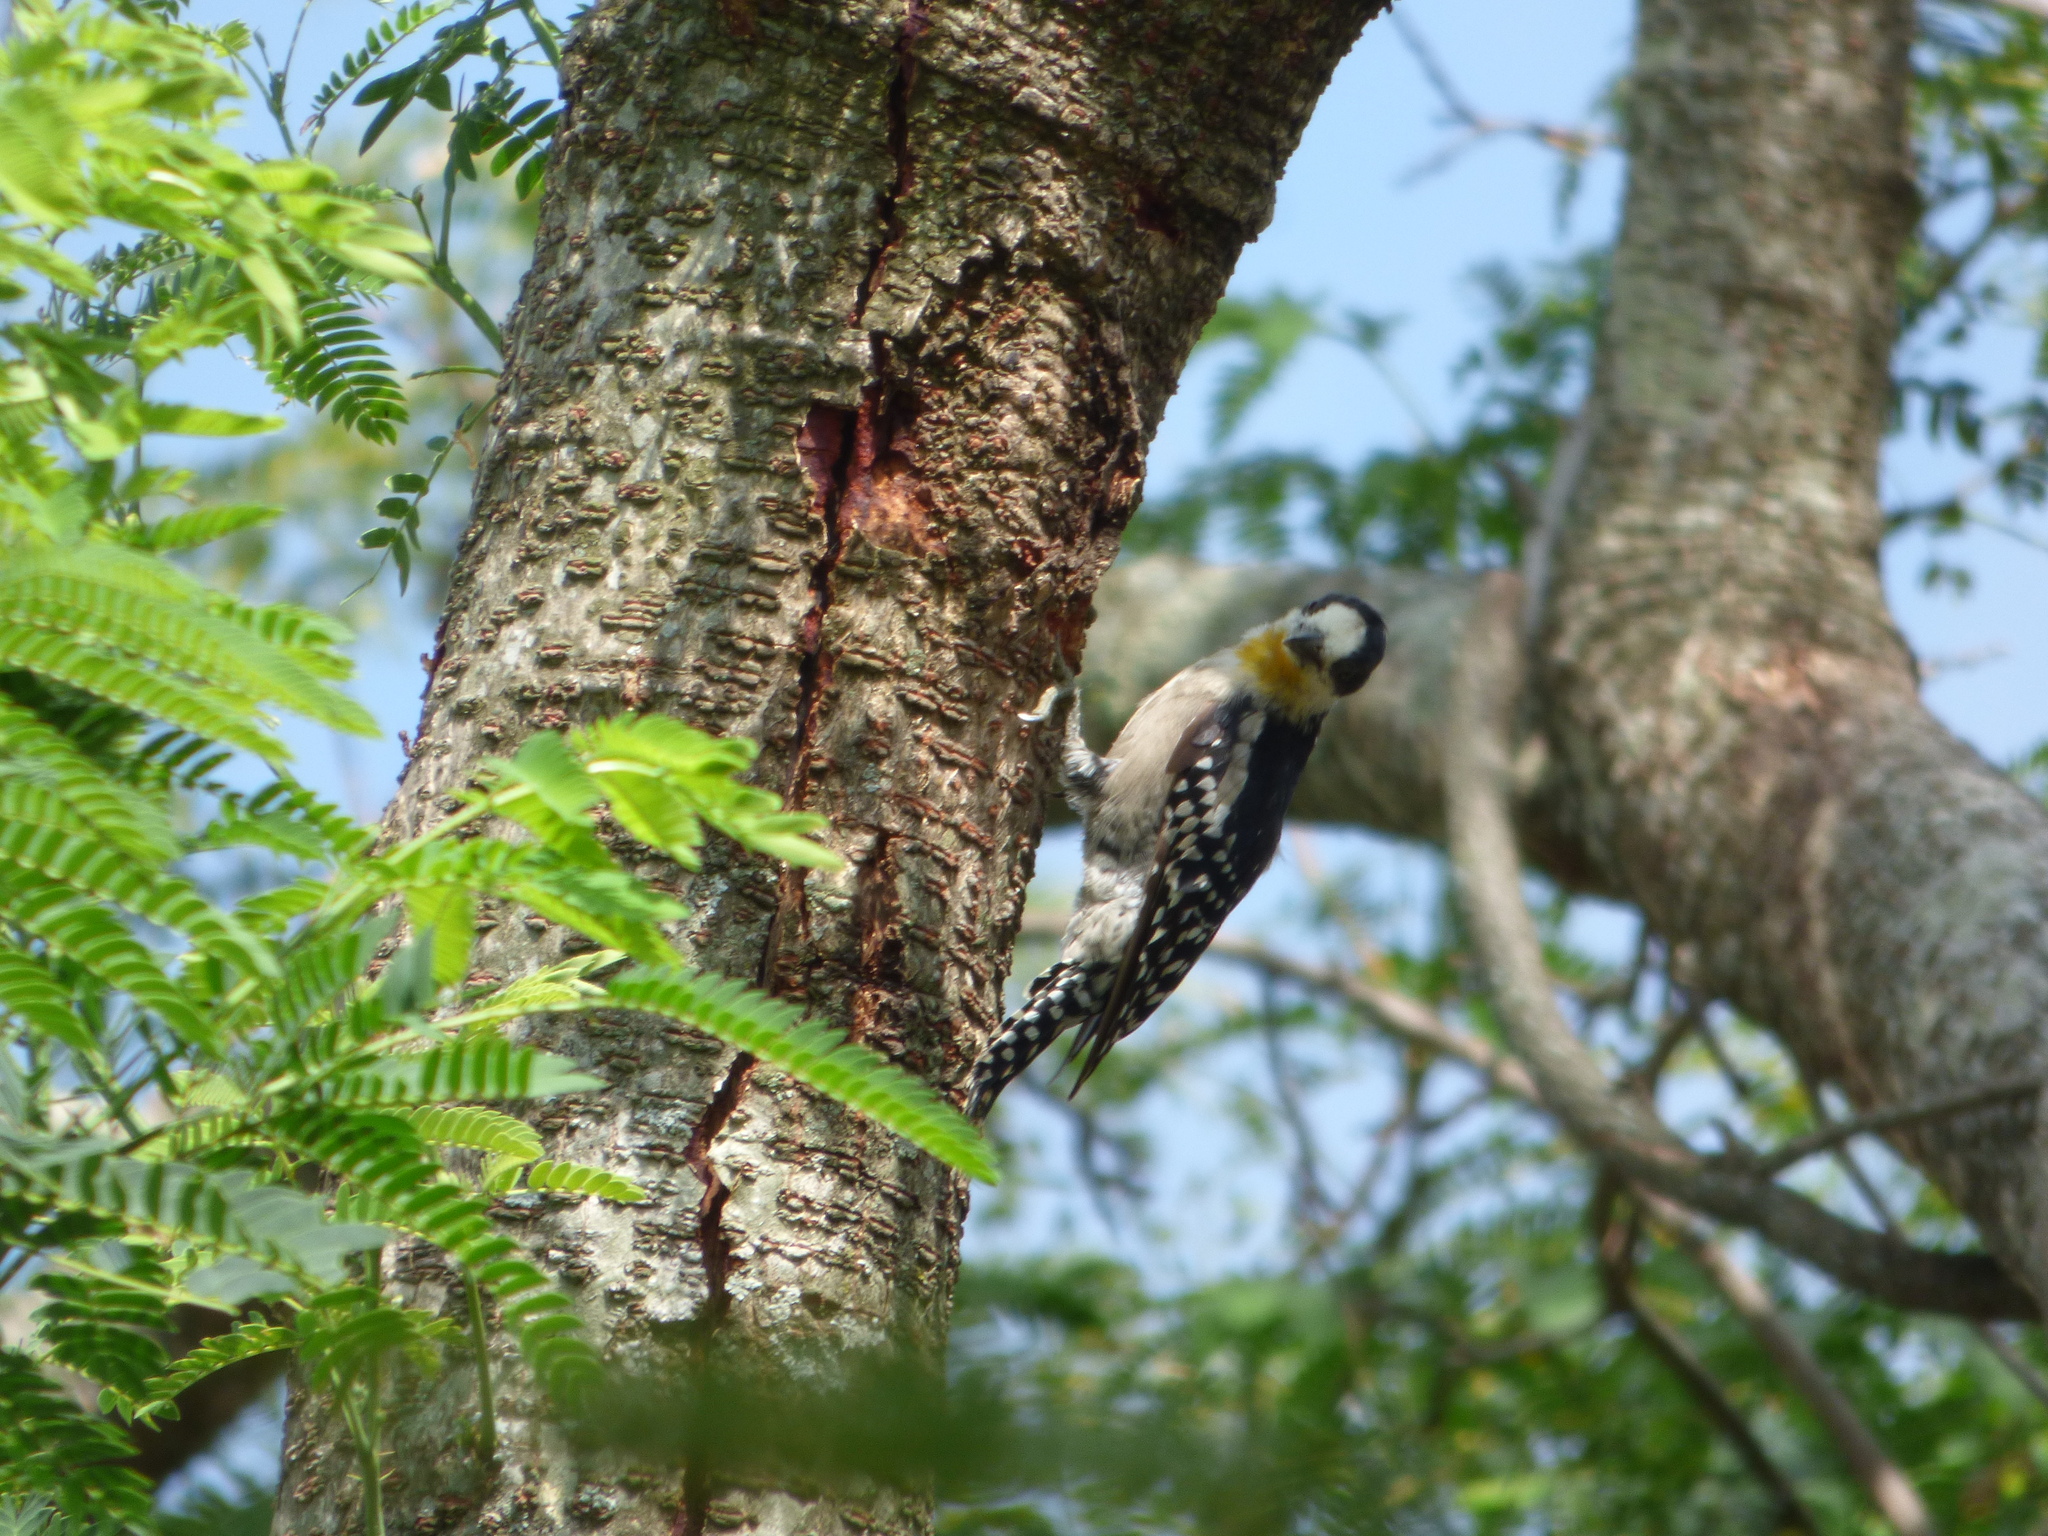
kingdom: Animalia
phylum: Chordata
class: Aves
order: Piciformes
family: Picidae
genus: Melanerpes
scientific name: Melanerpes cactorum
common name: White-fronted woodpecker
